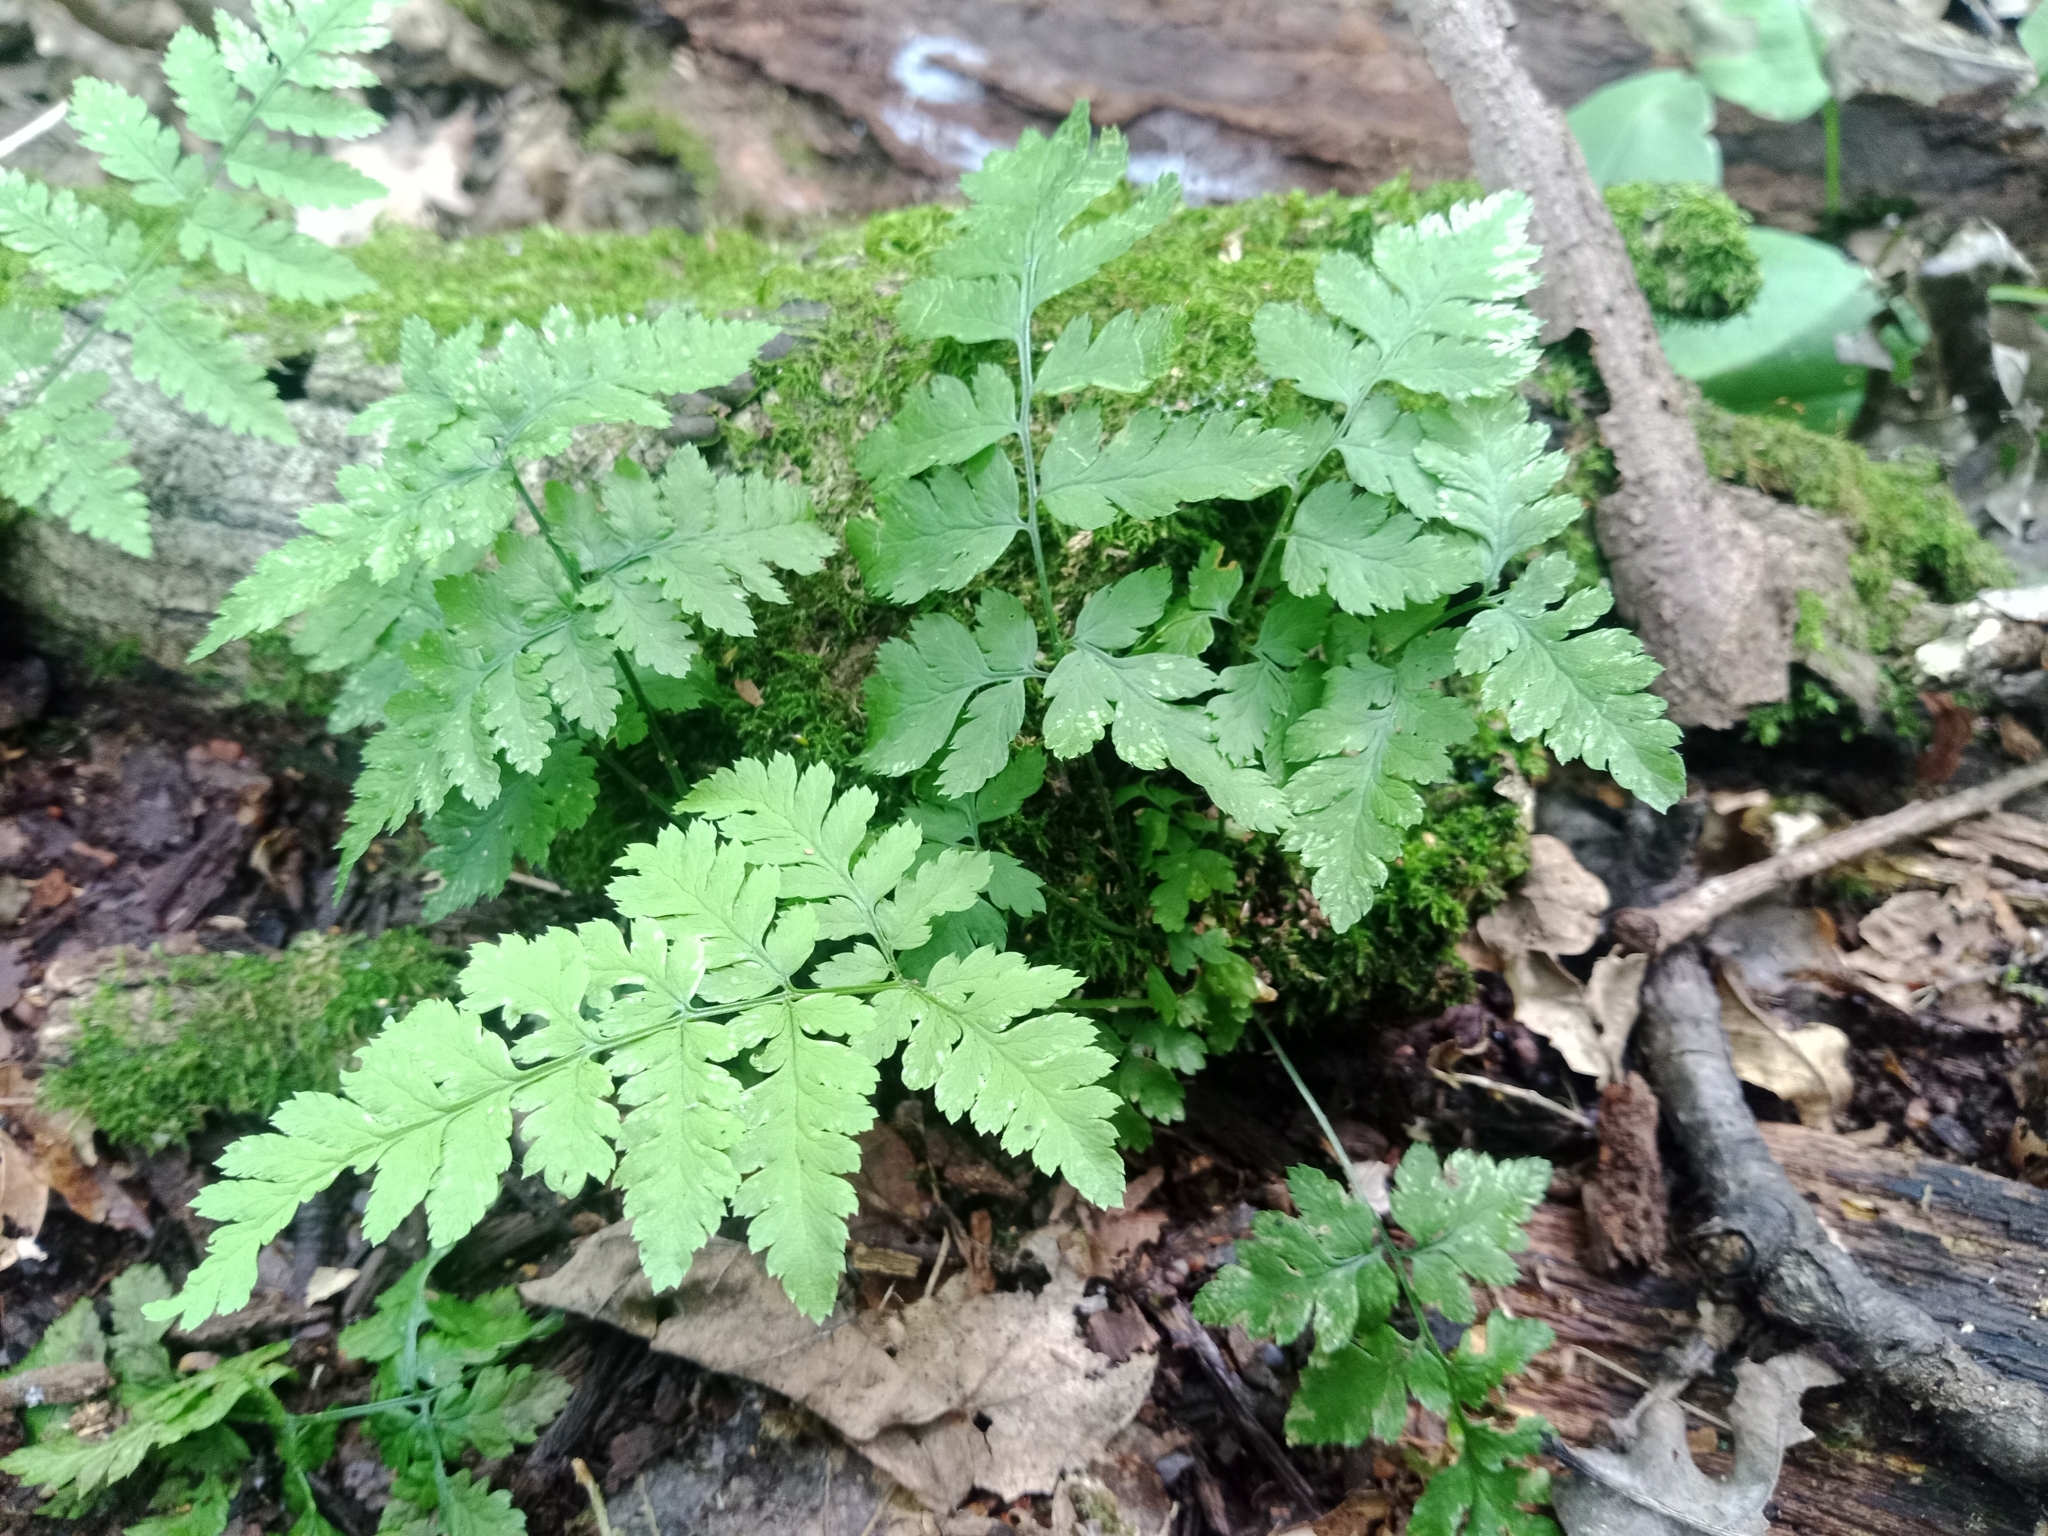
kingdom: Plantae
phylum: Tracheophyta
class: Polypodiopsida
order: Polypodiales
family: Dryopteridaceae
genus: Dryopteris
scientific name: Dryopteris carthusiana
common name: Narrow buckler-fern
